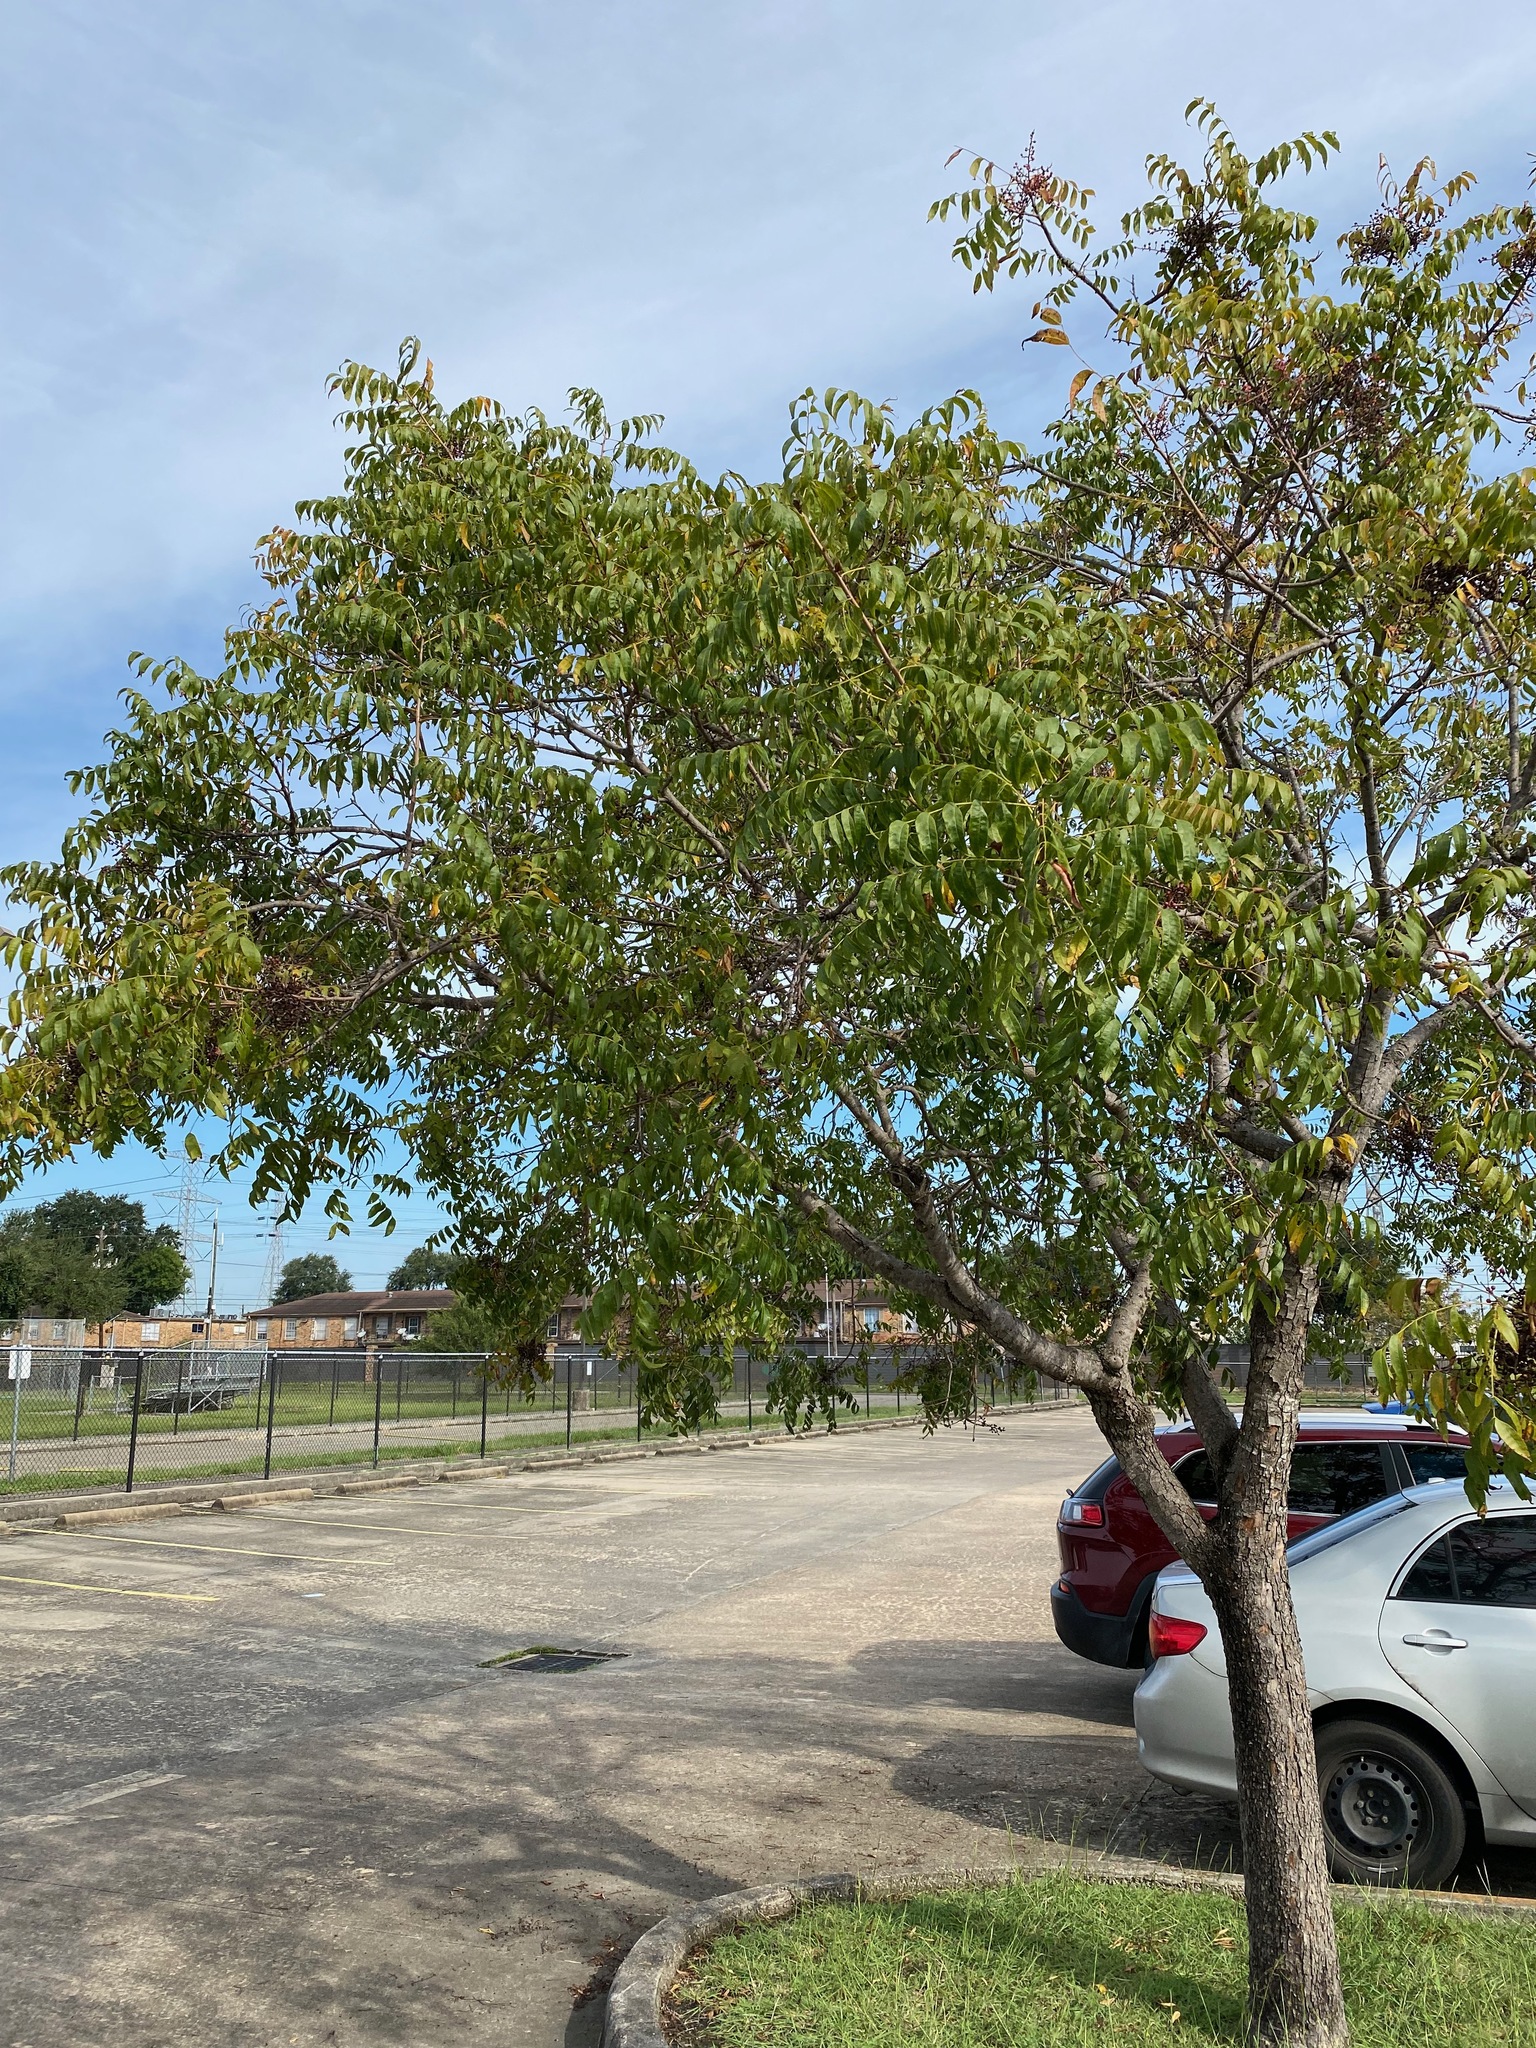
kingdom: Plantae
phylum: Tracheophyta
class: Magnoliopsida
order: Sapindales
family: Anacardiaceae
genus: Pistacia
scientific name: Pistacia chinensis
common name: Chinese pistache
